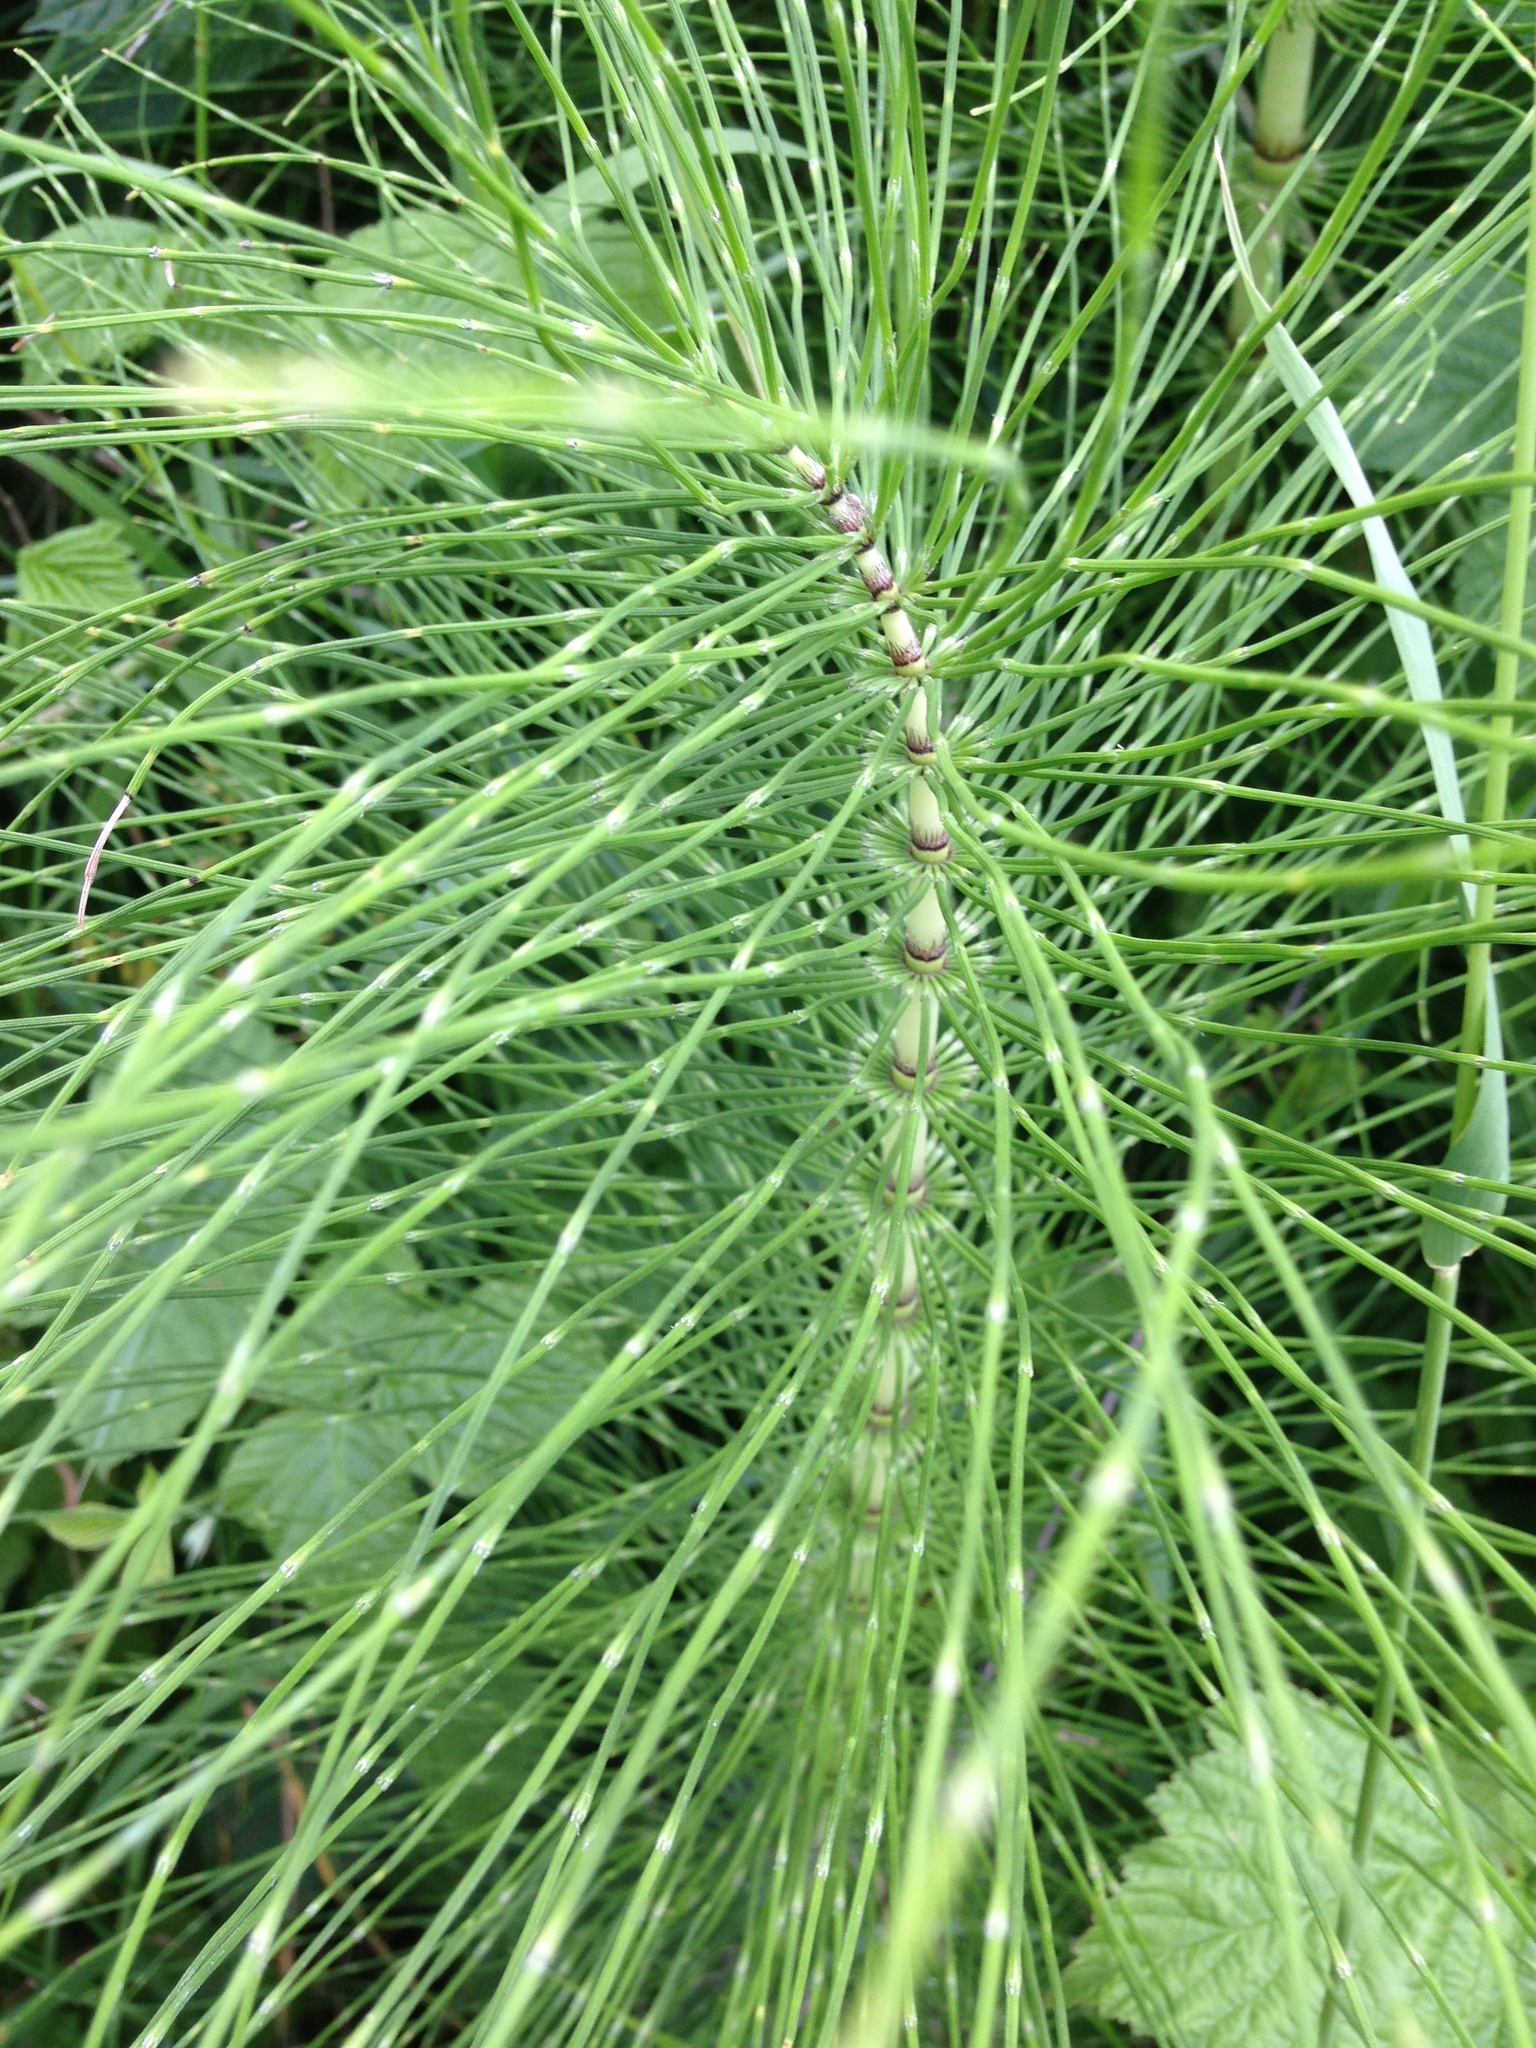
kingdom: Plantae
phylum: Tracheophyta
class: Polypodiopsida
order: Equisetales
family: Equisetaceae
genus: Equisetum
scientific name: Equisetum telmateia
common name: Great horsetail
